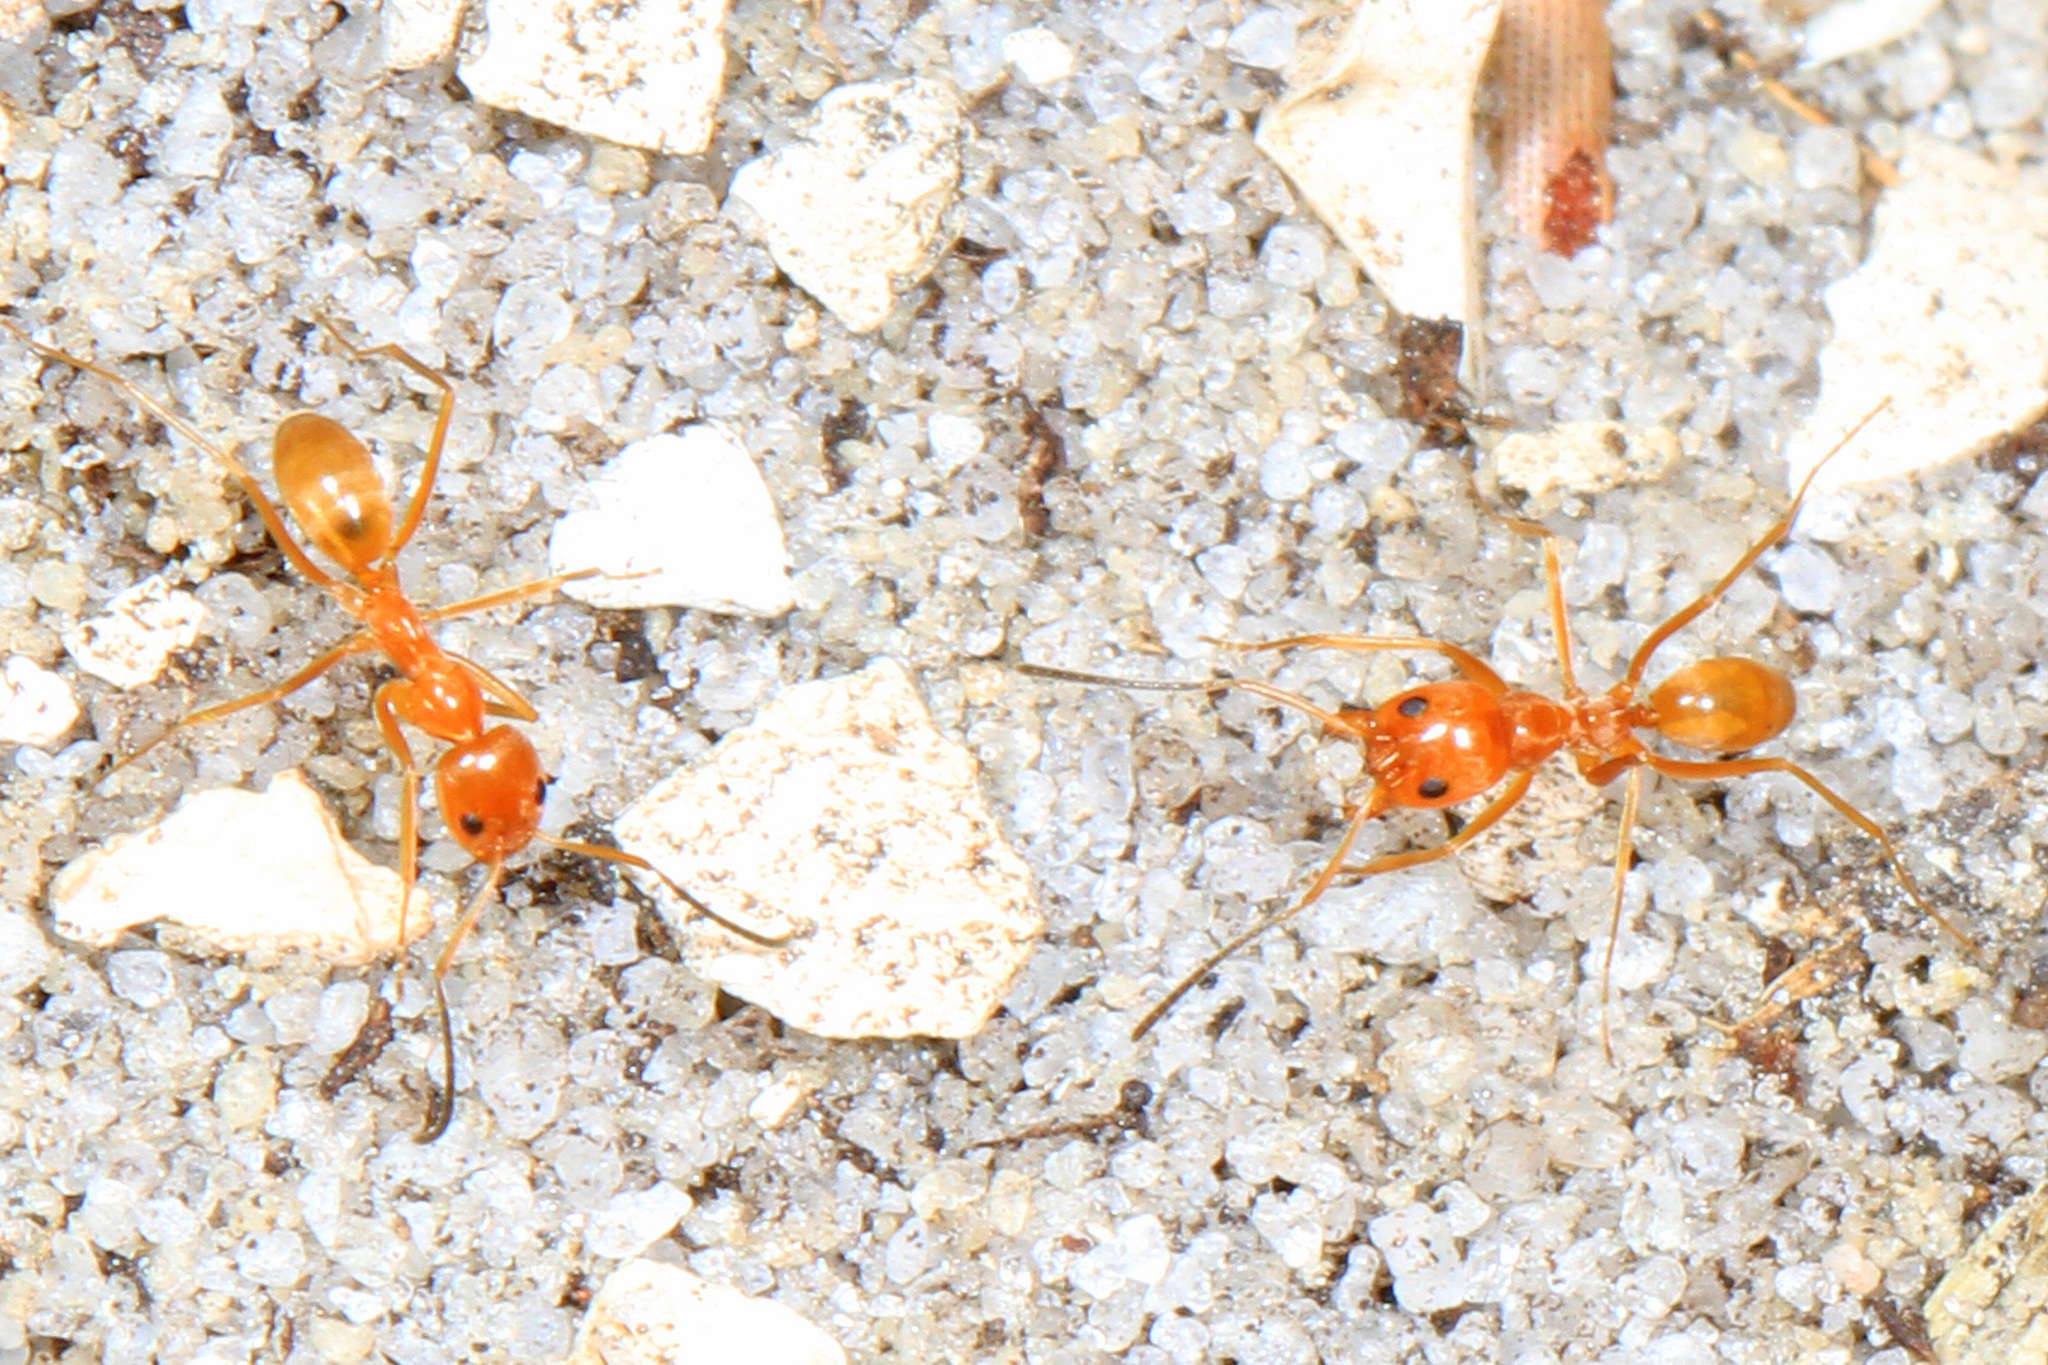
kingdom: Animalia
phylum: Arthropoda
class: Insecta
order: Hymenoptera
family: Formicidae
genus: Dorymyrmex
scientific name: Dorymyrmex bureni
